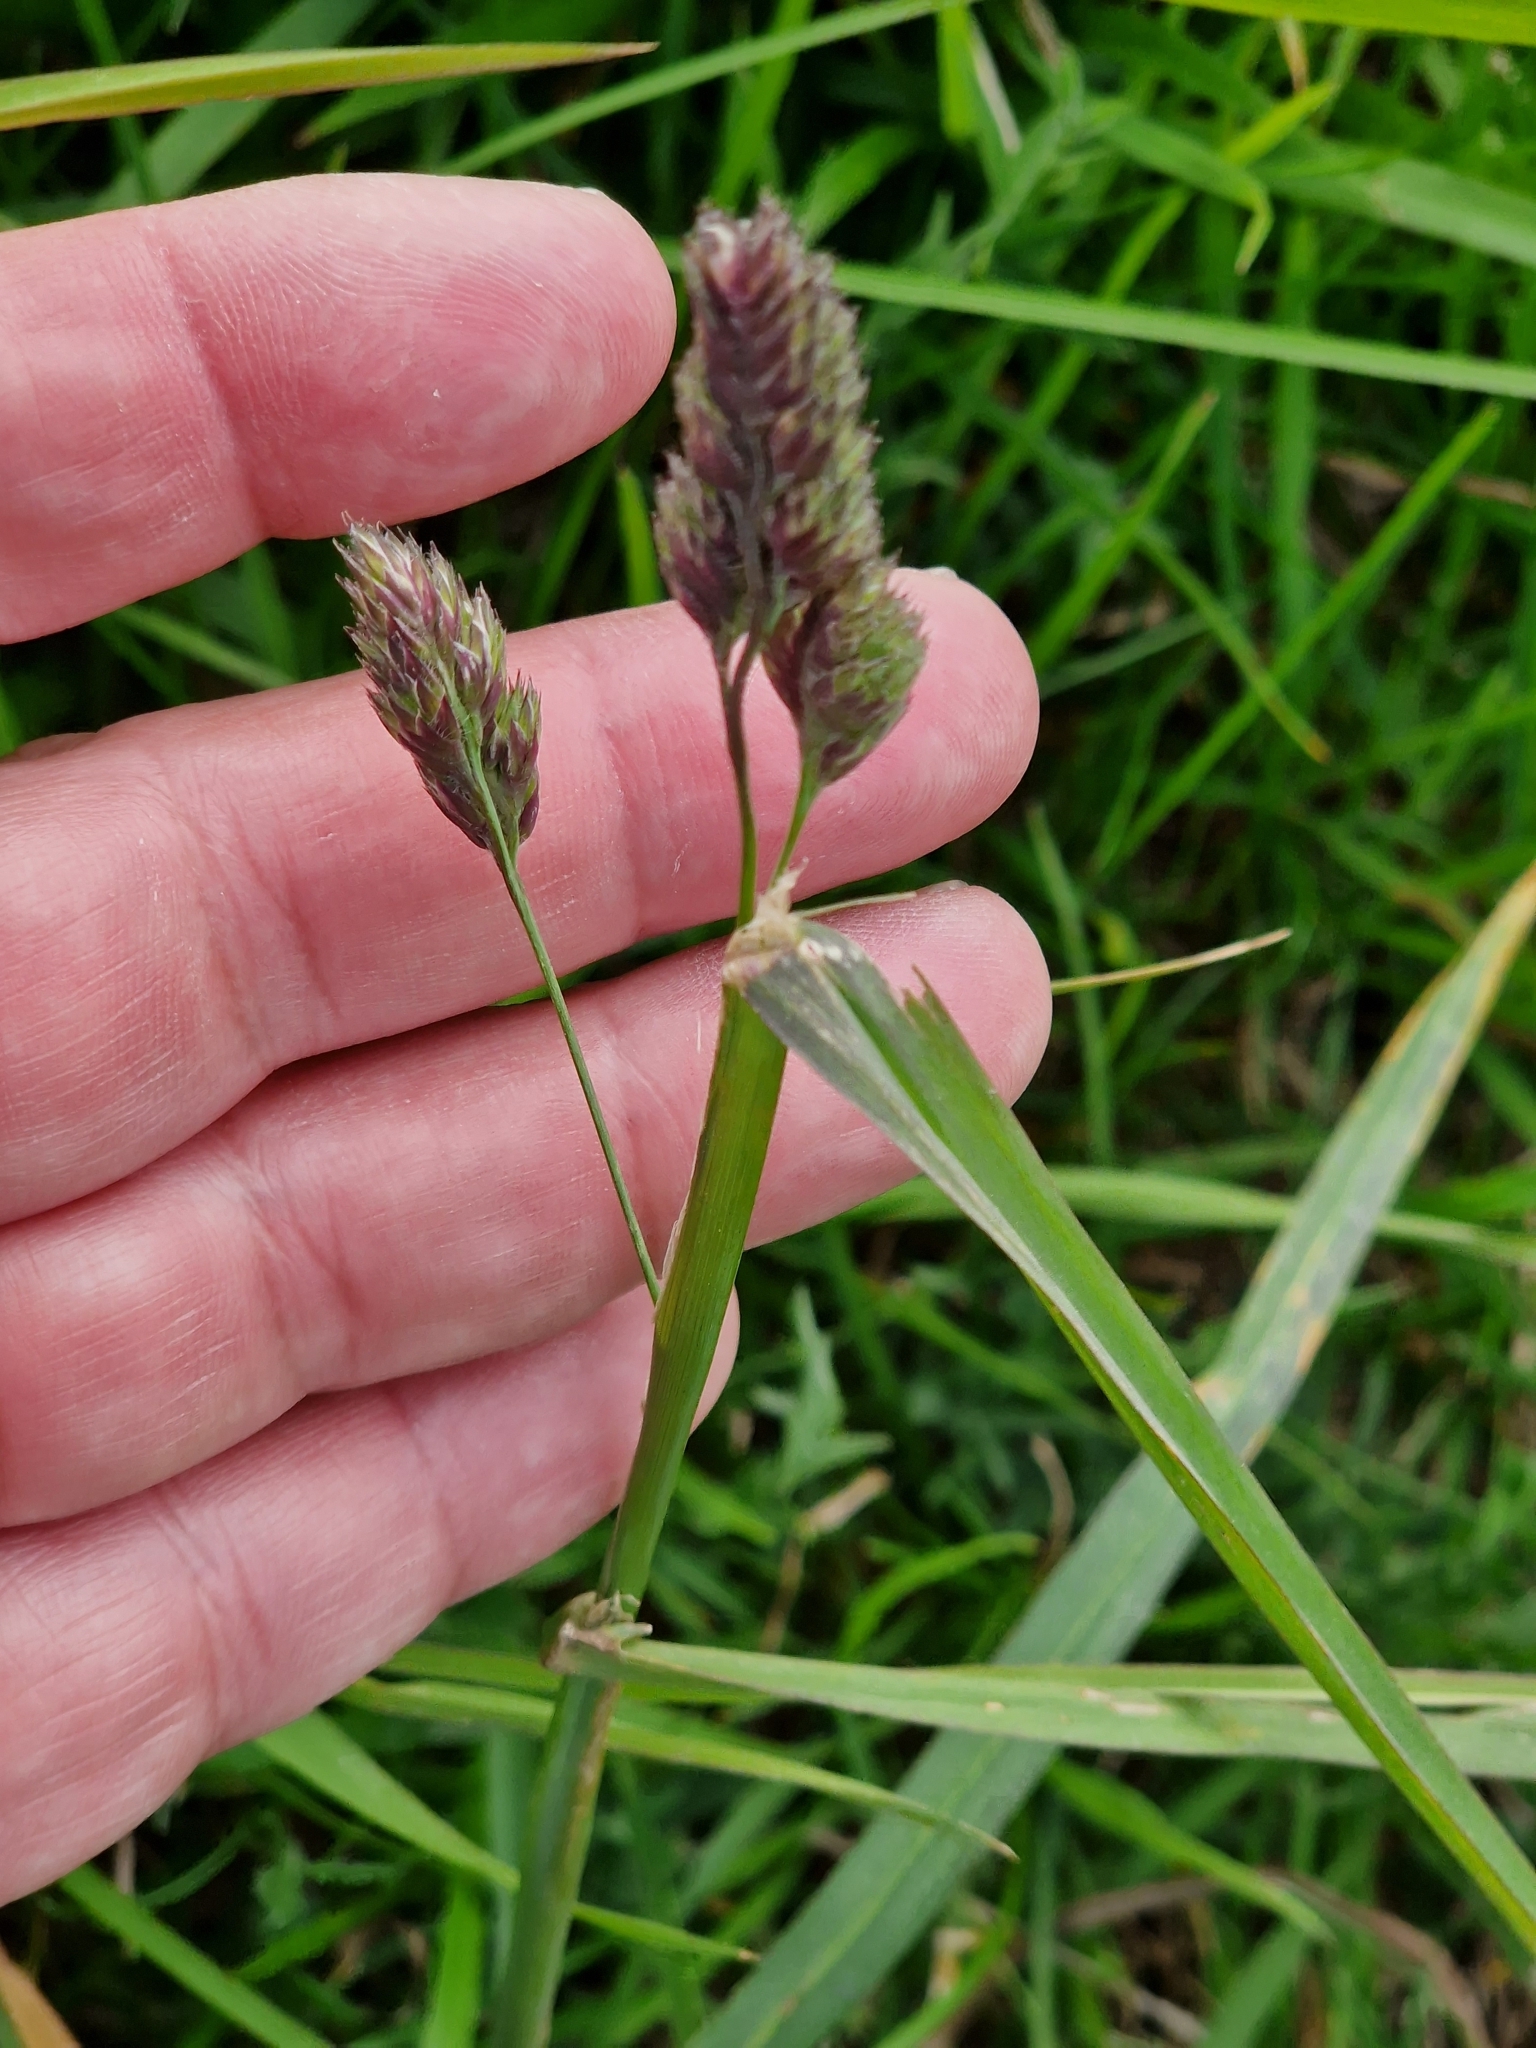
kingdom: Plantae
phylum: Tracheophyta
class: Liliopsida
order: Poales
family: Poaceae
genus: Dactylis
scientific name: Dactylis glomerata
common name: Orchardgrass
